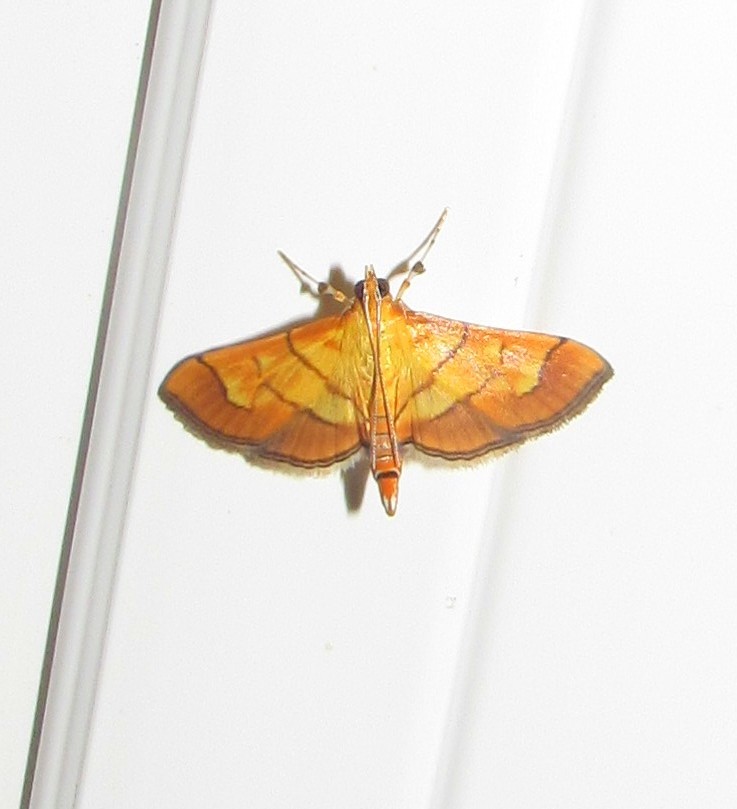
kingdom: Animalia
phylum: Arthropoda
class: Insecta
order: Lepidoptera
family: Crambidae
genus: Salbia
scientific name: Salbia haemorrhoidalis
